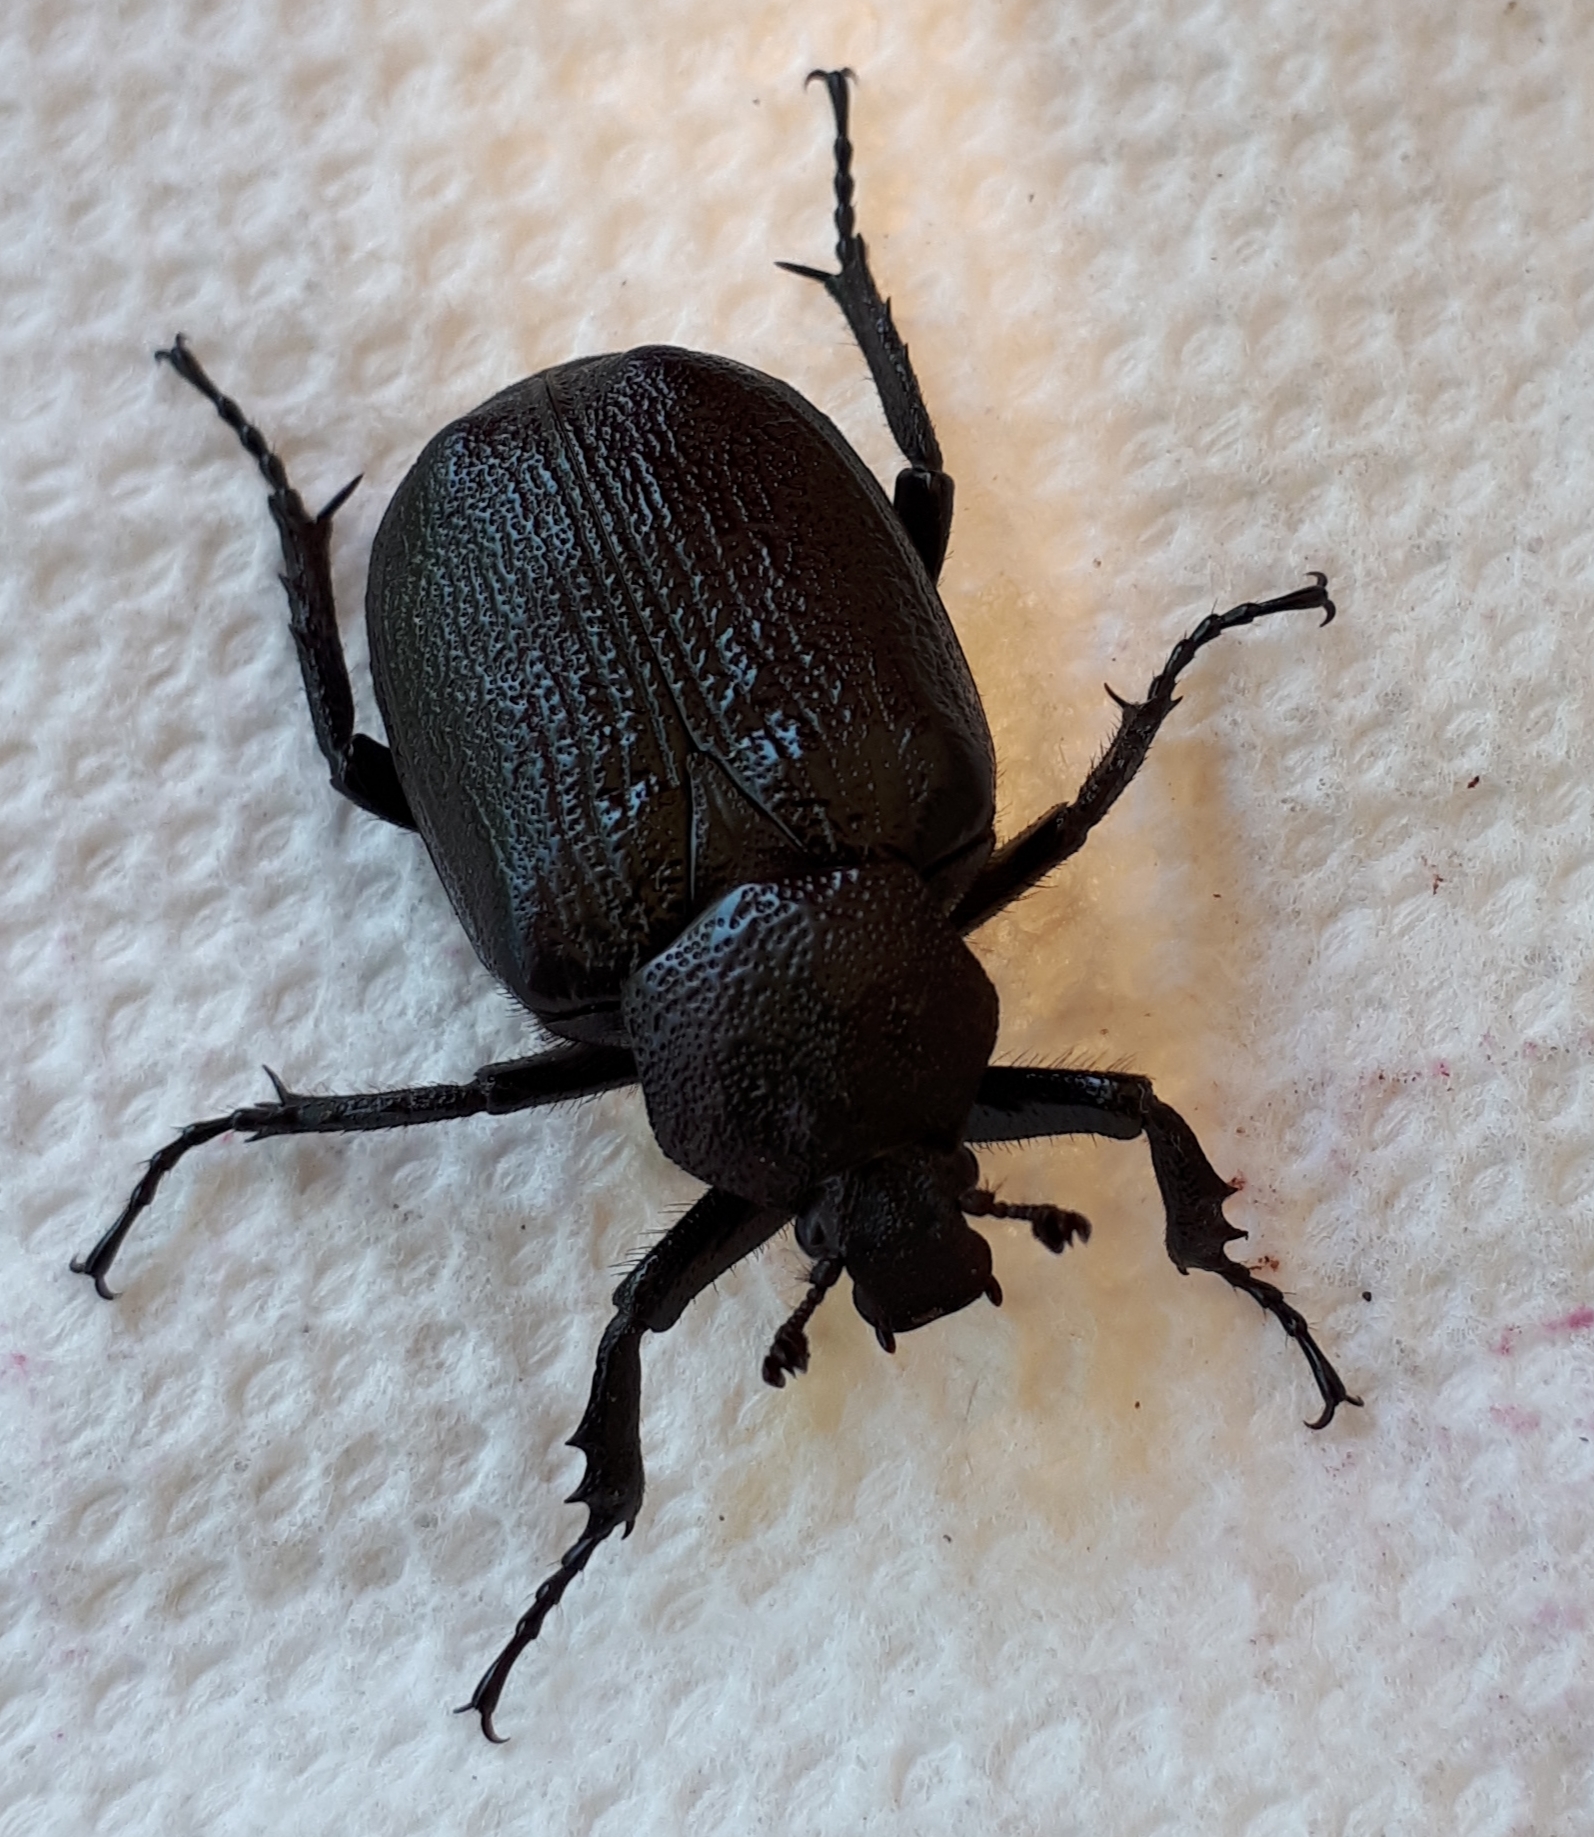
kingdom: Animalia
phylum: Arthropoda
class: Insecta
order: Coleoptera
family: Scarabaeidae
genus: Osmoderma
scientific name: Osmoderma scabra
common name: Rough hermit beetle
